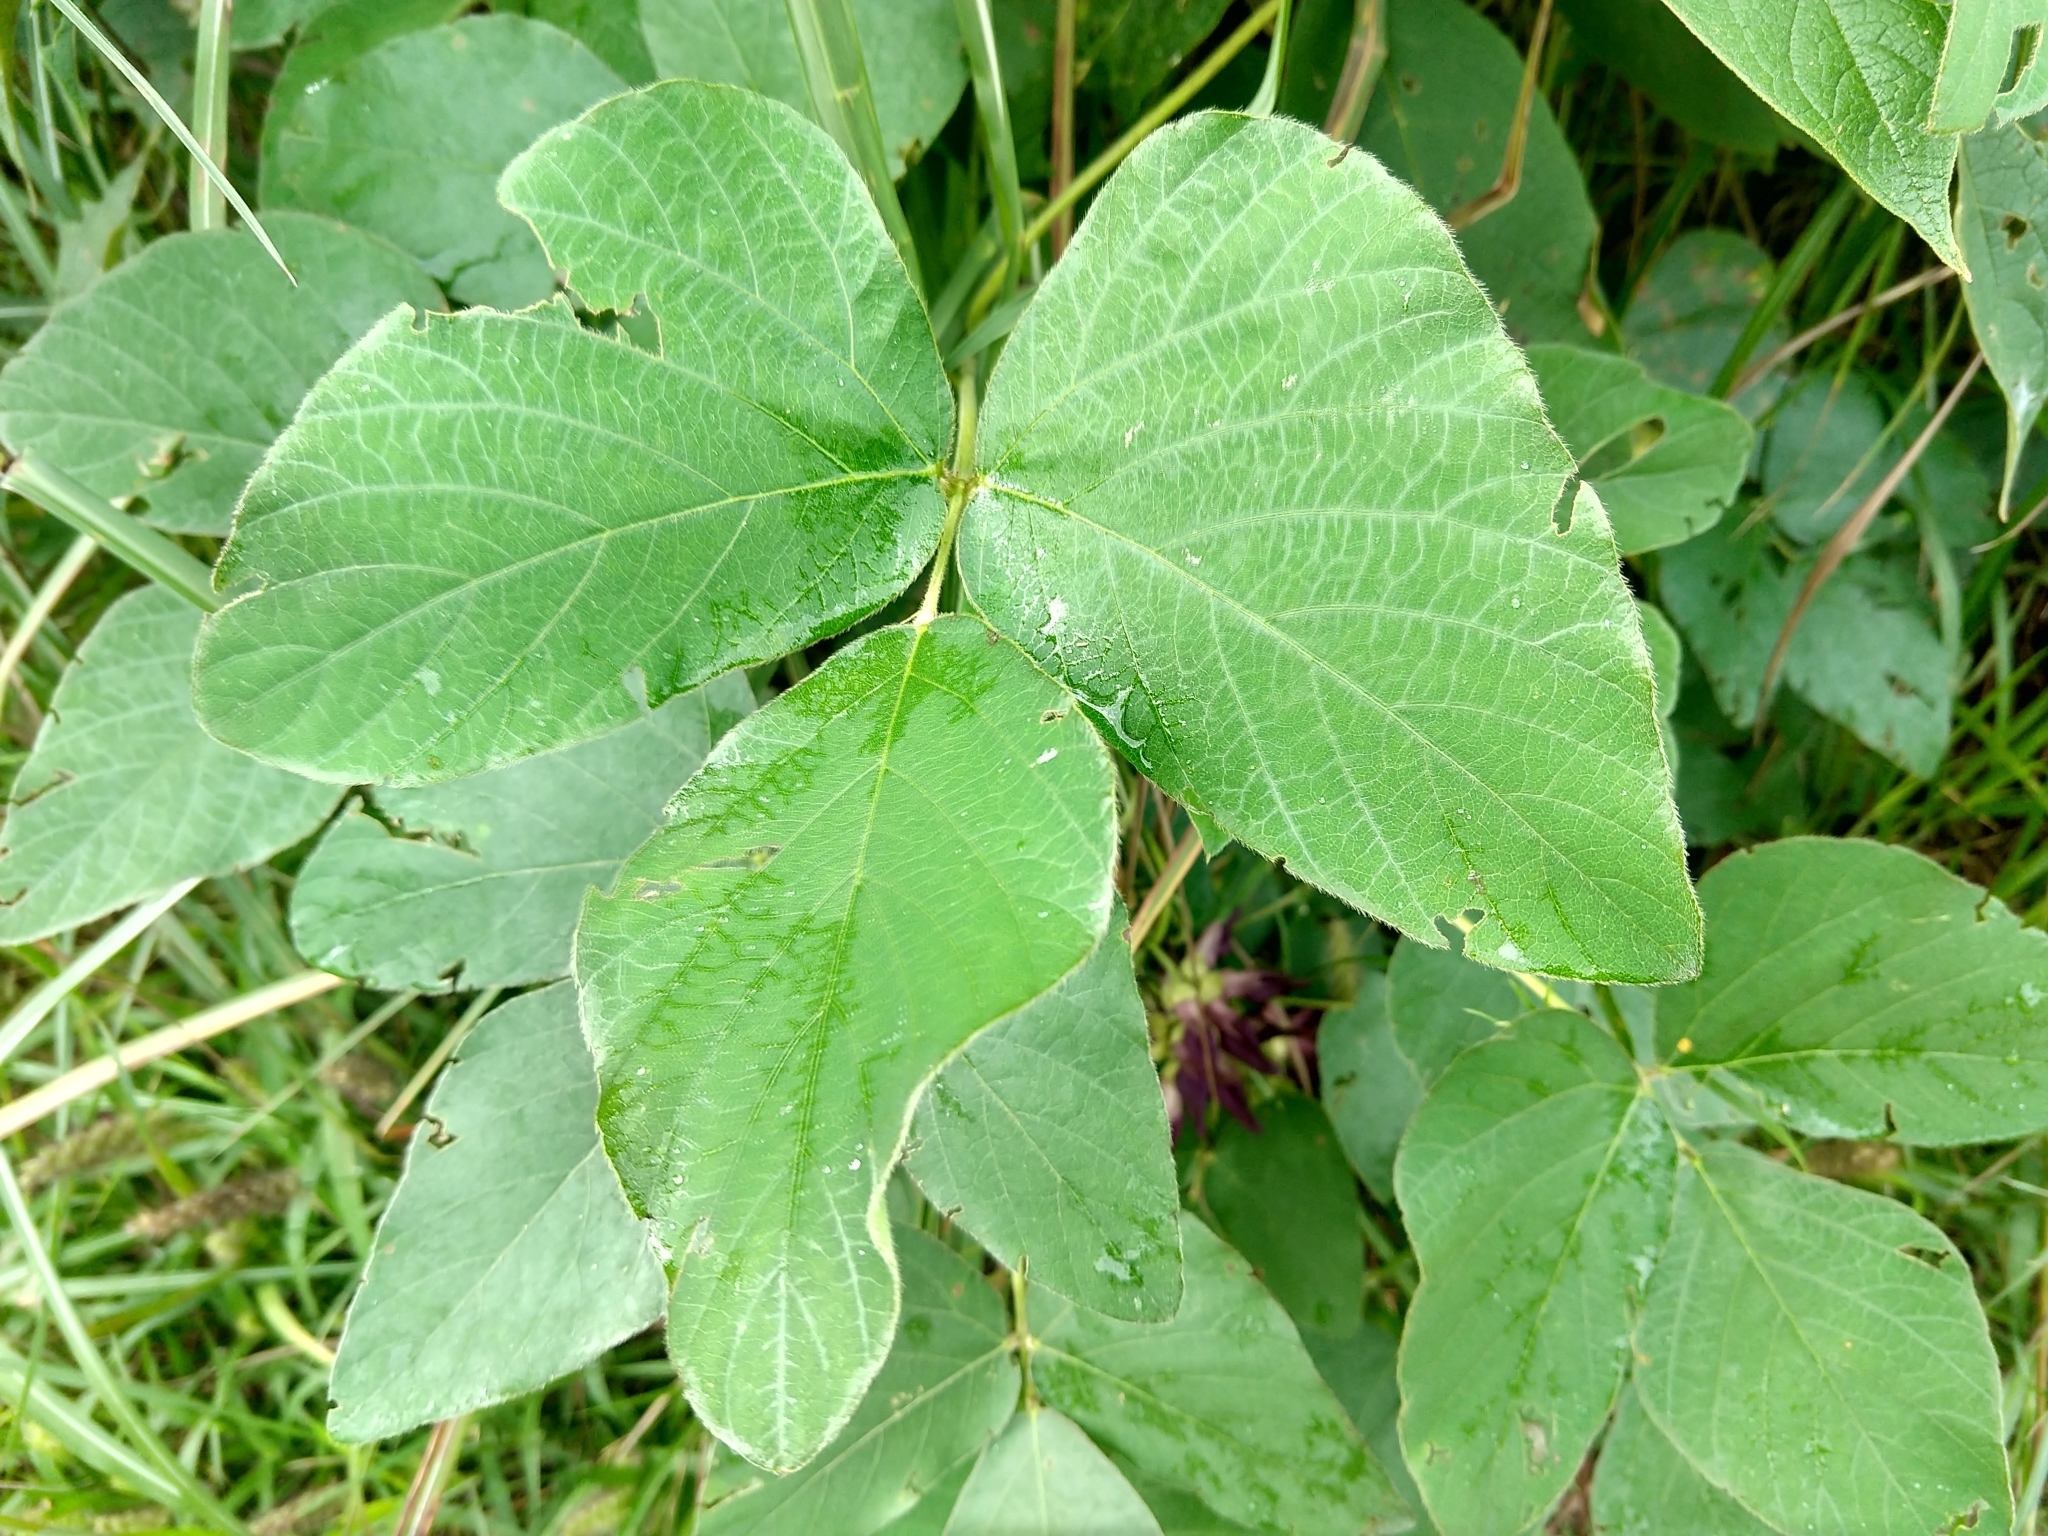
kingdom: Plantae
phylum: Tracheophyta
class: Magnoliopsida
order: Fabales
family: Fabaceae
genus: Mucuna
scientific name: Mucuna pruriens
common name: Cow-itch
